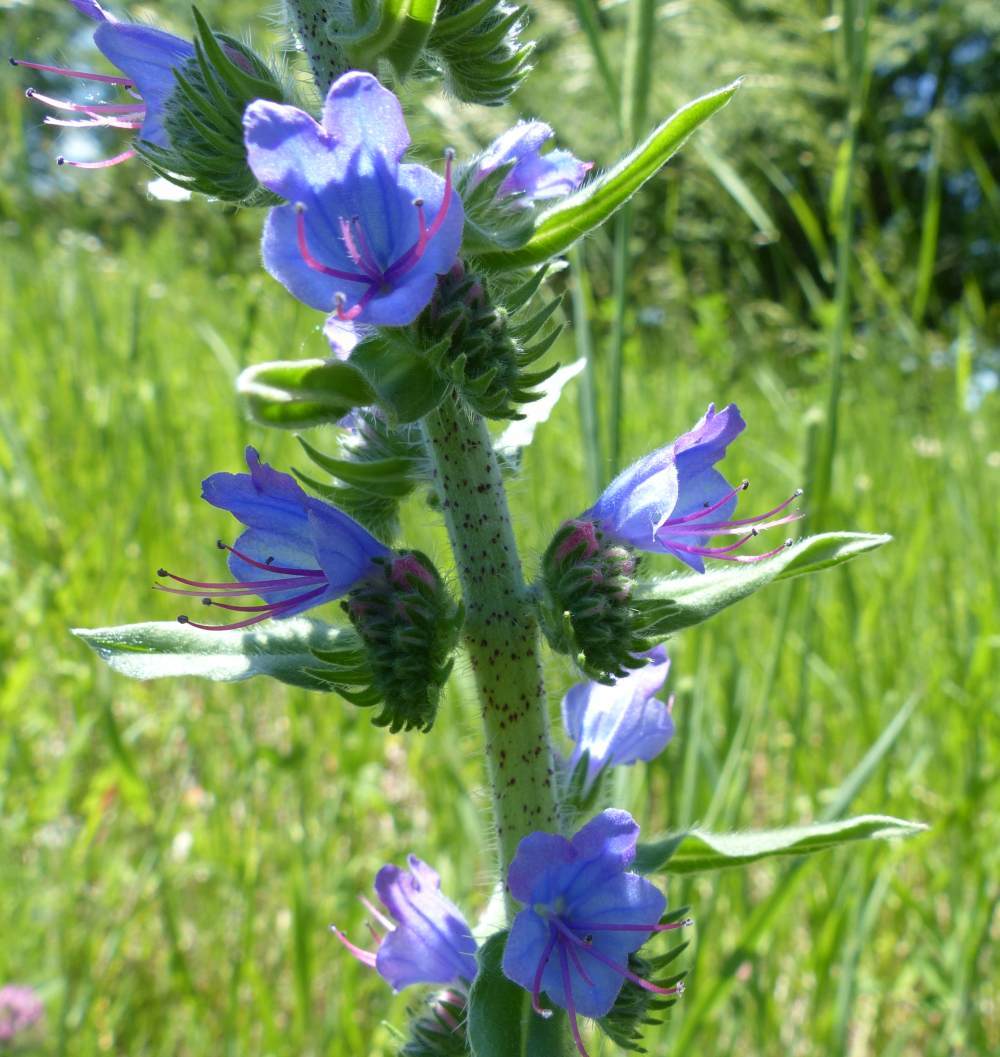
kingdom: Plantae
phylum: Tracheophyta
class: Magnoliopsida
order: Boraginales
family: Boraginaceae
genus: Echium
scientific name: Echium vulgare
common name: Common viper's bugloss
